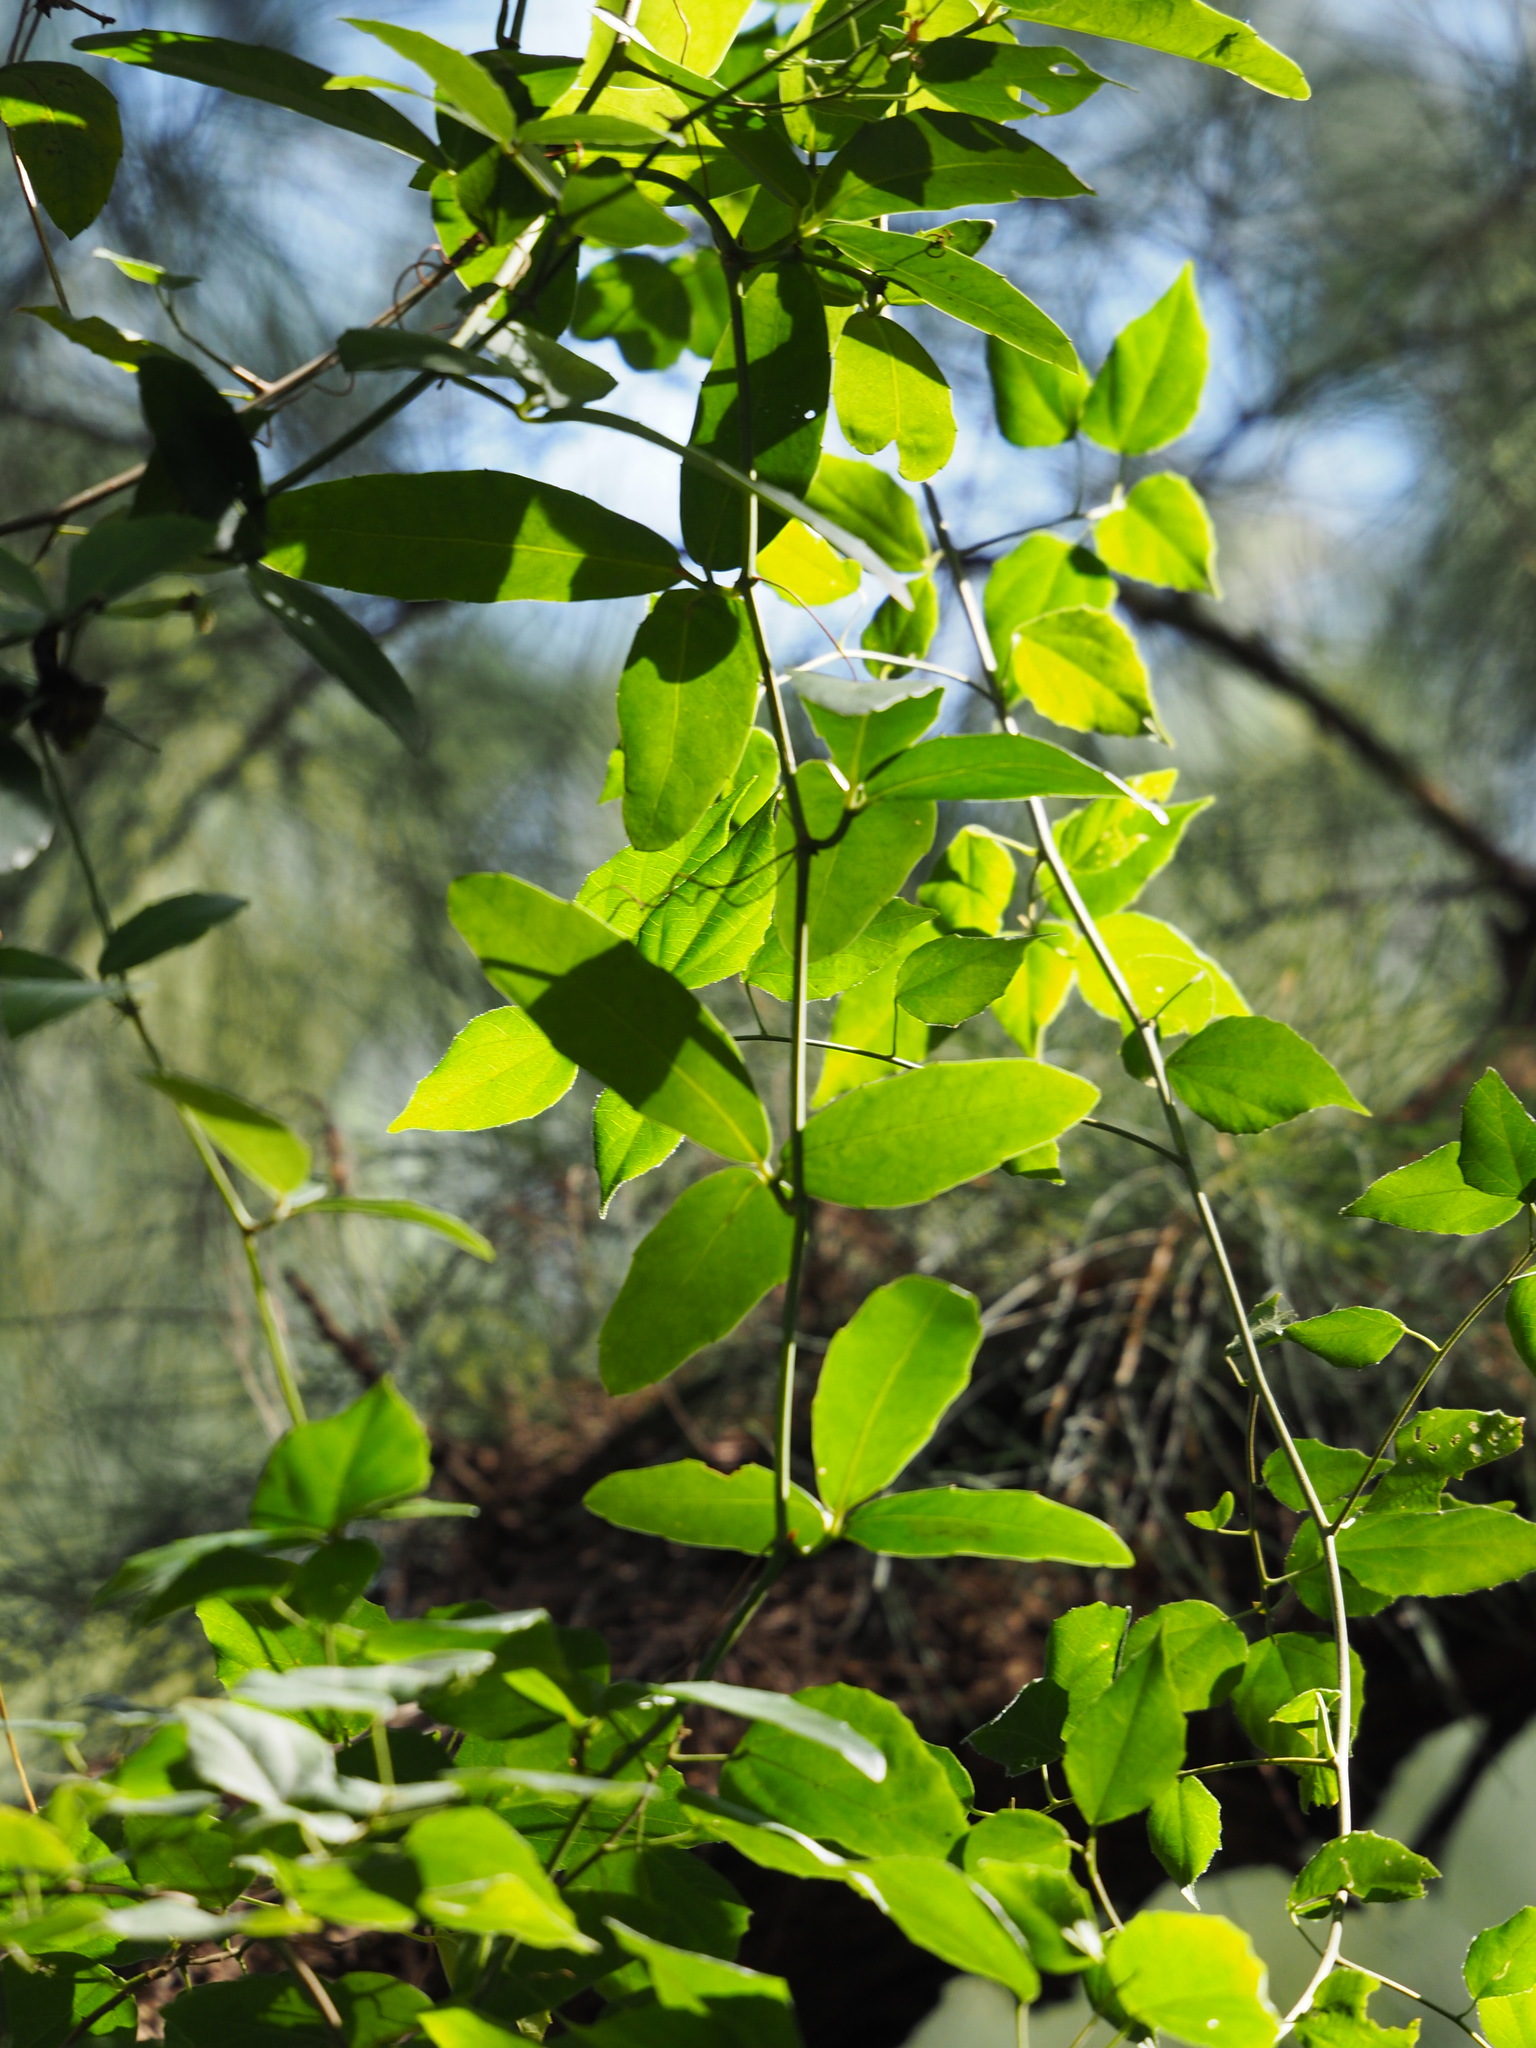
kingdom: Plantae
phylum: Tracheophyta
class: Magnoliopsida
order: Vitales
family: Vitaceae
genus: Tetrastigma
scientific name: Tetrastigma formosanum
